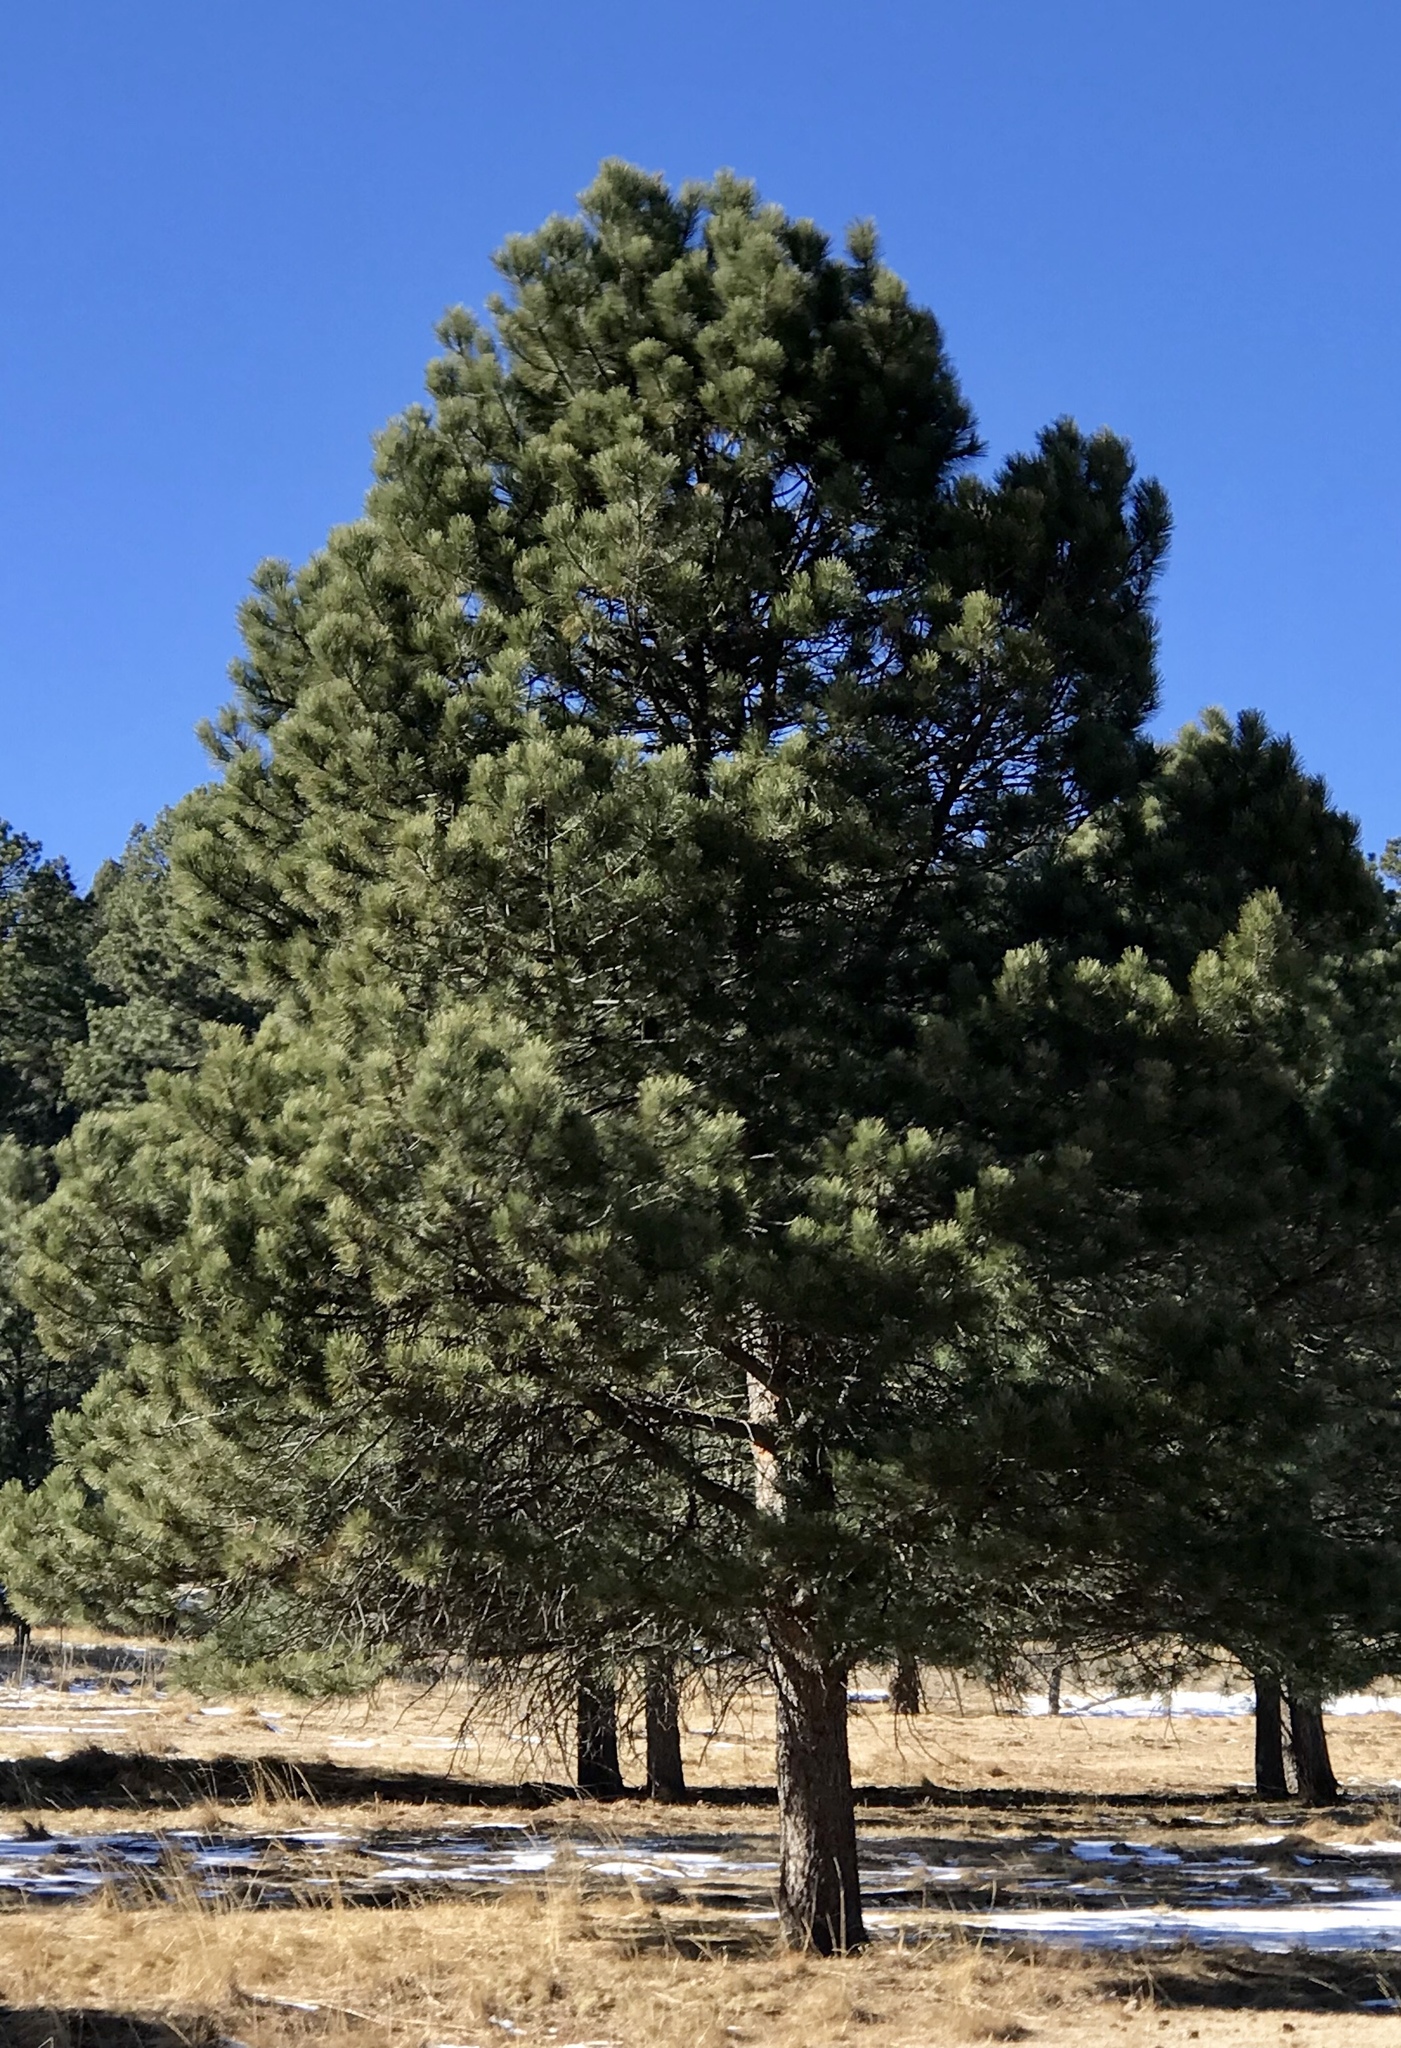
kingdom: Plantae
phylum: Tracheophyta
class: Pinopsida
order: Pinales
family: Pinaceae
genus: Pinus
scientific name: Pinus ponderosa
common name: Western yellow-pine
